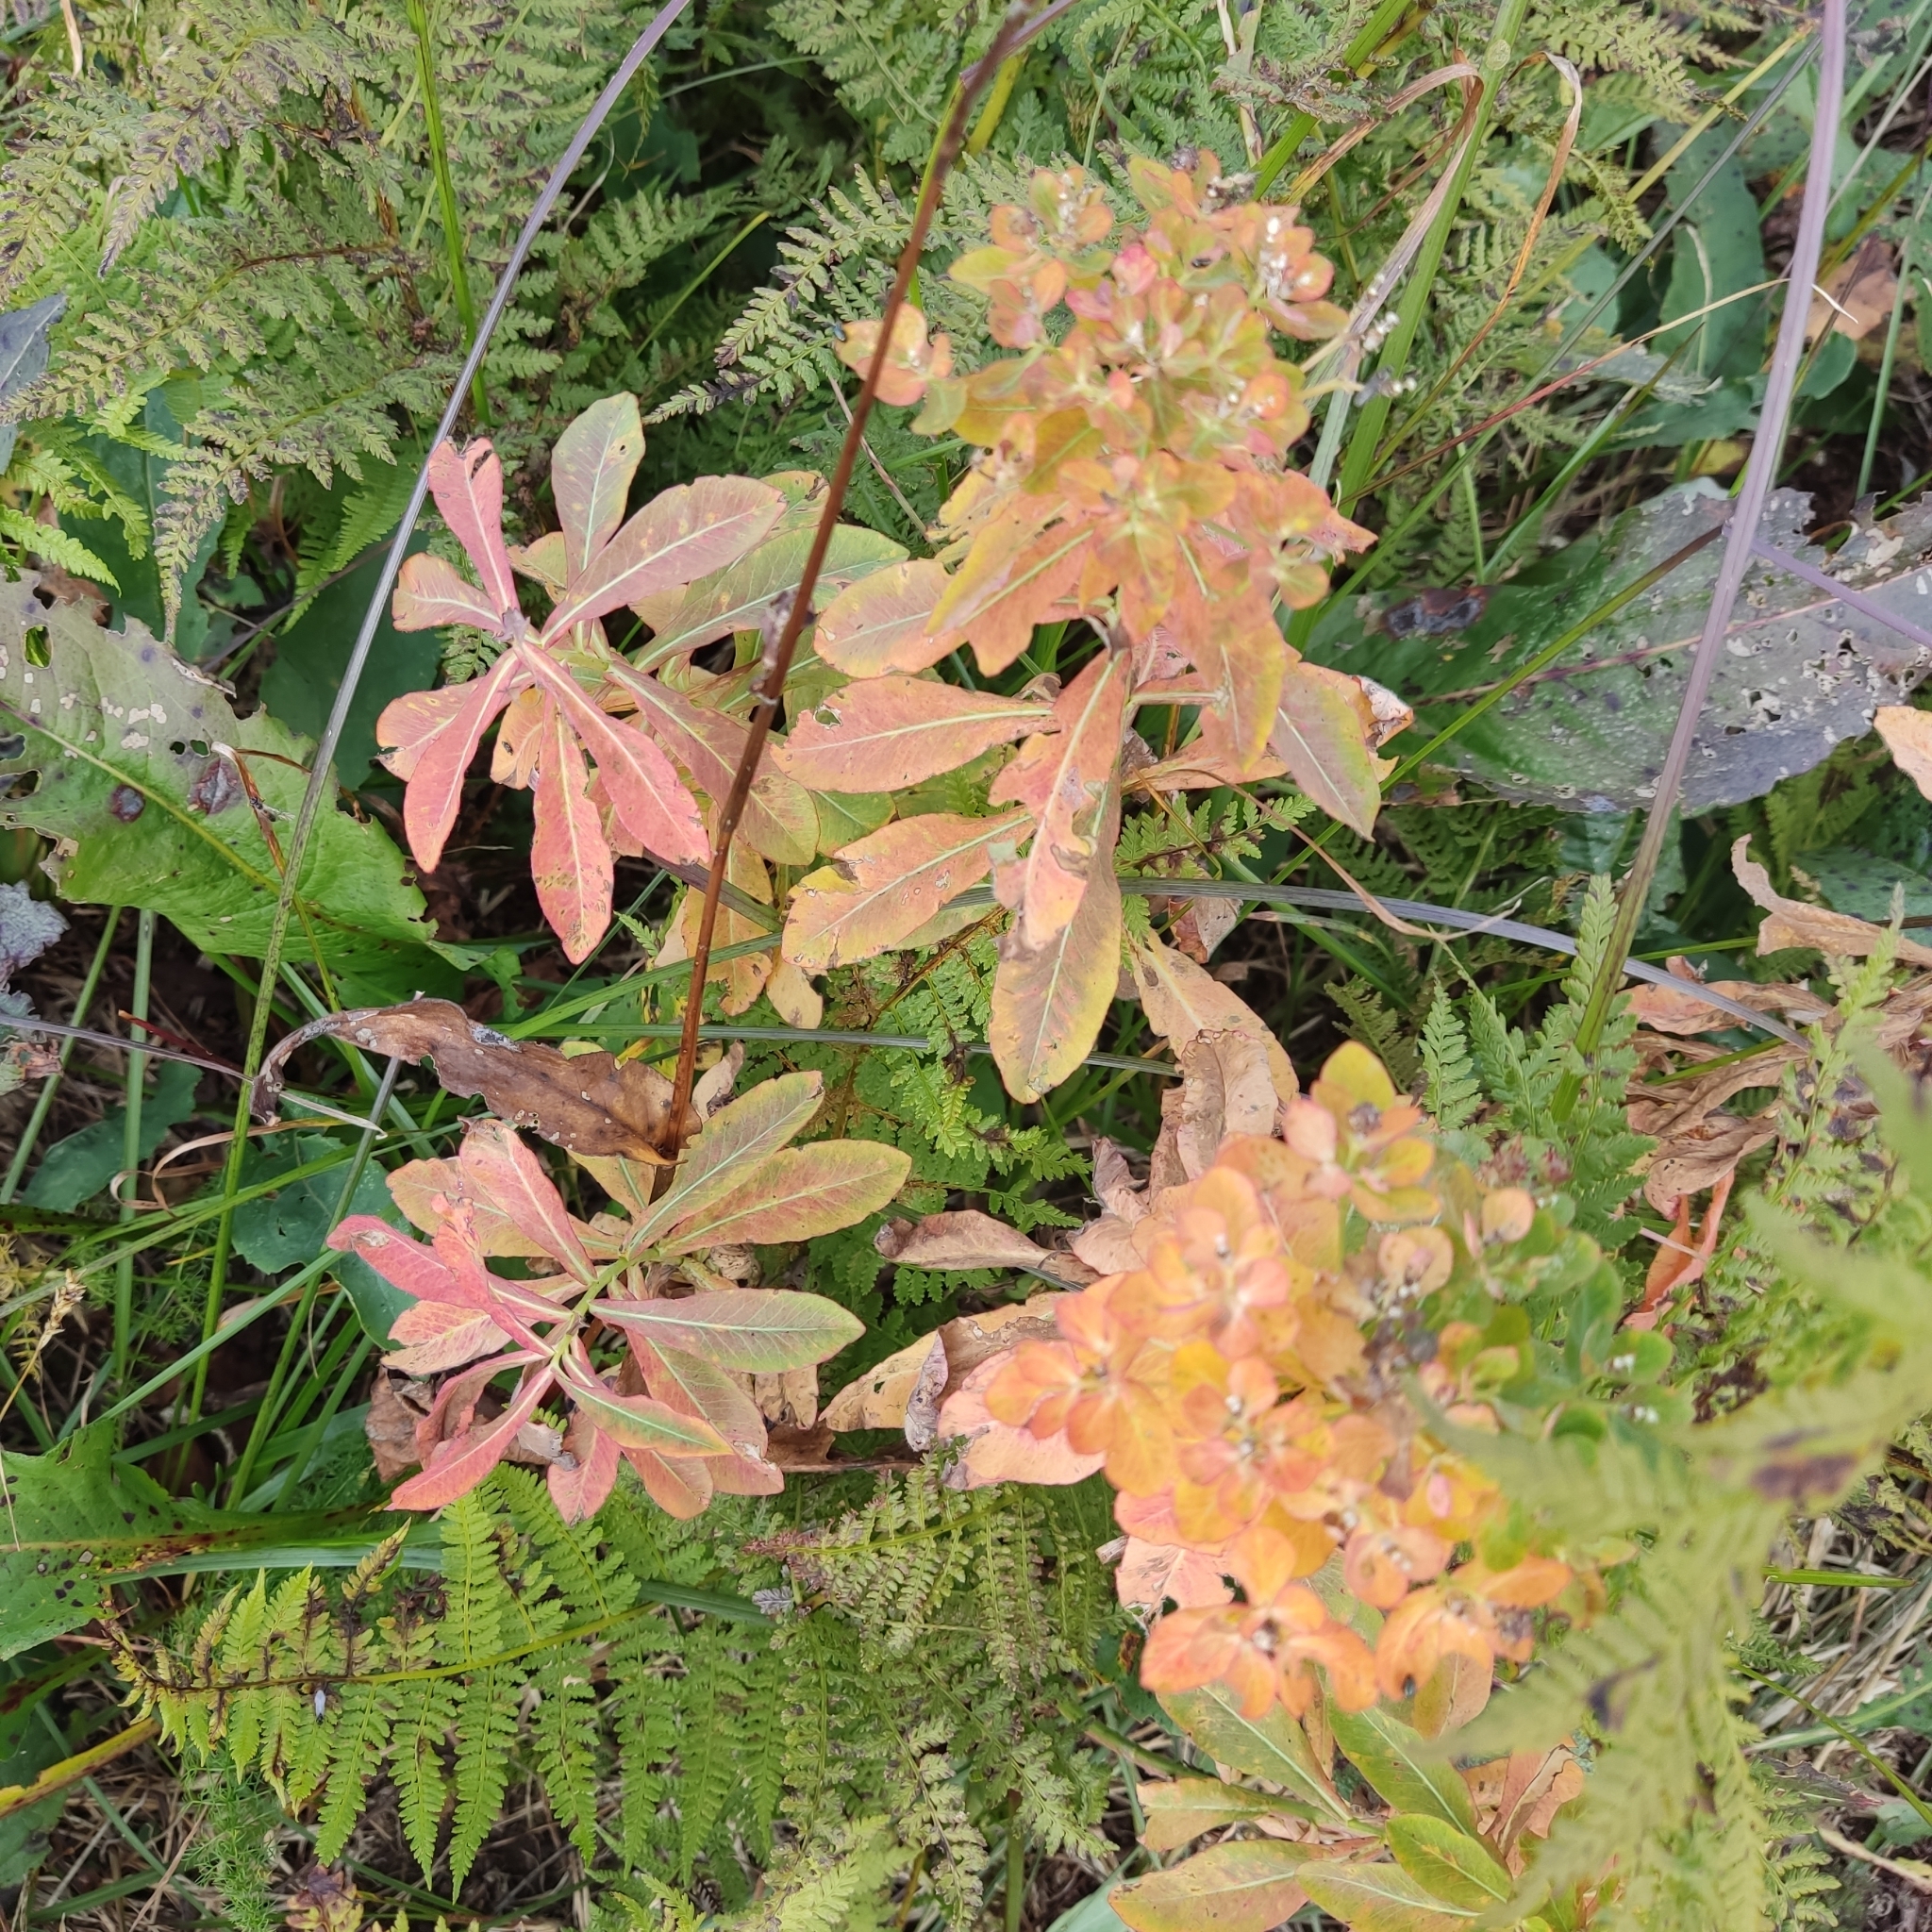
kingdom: Plantae
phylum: Tracheophyta
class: Magnoliopsida
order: Malpighiales
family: Euphorbiaceae
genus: Euphorbia
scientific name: Euphorbia pilosa
